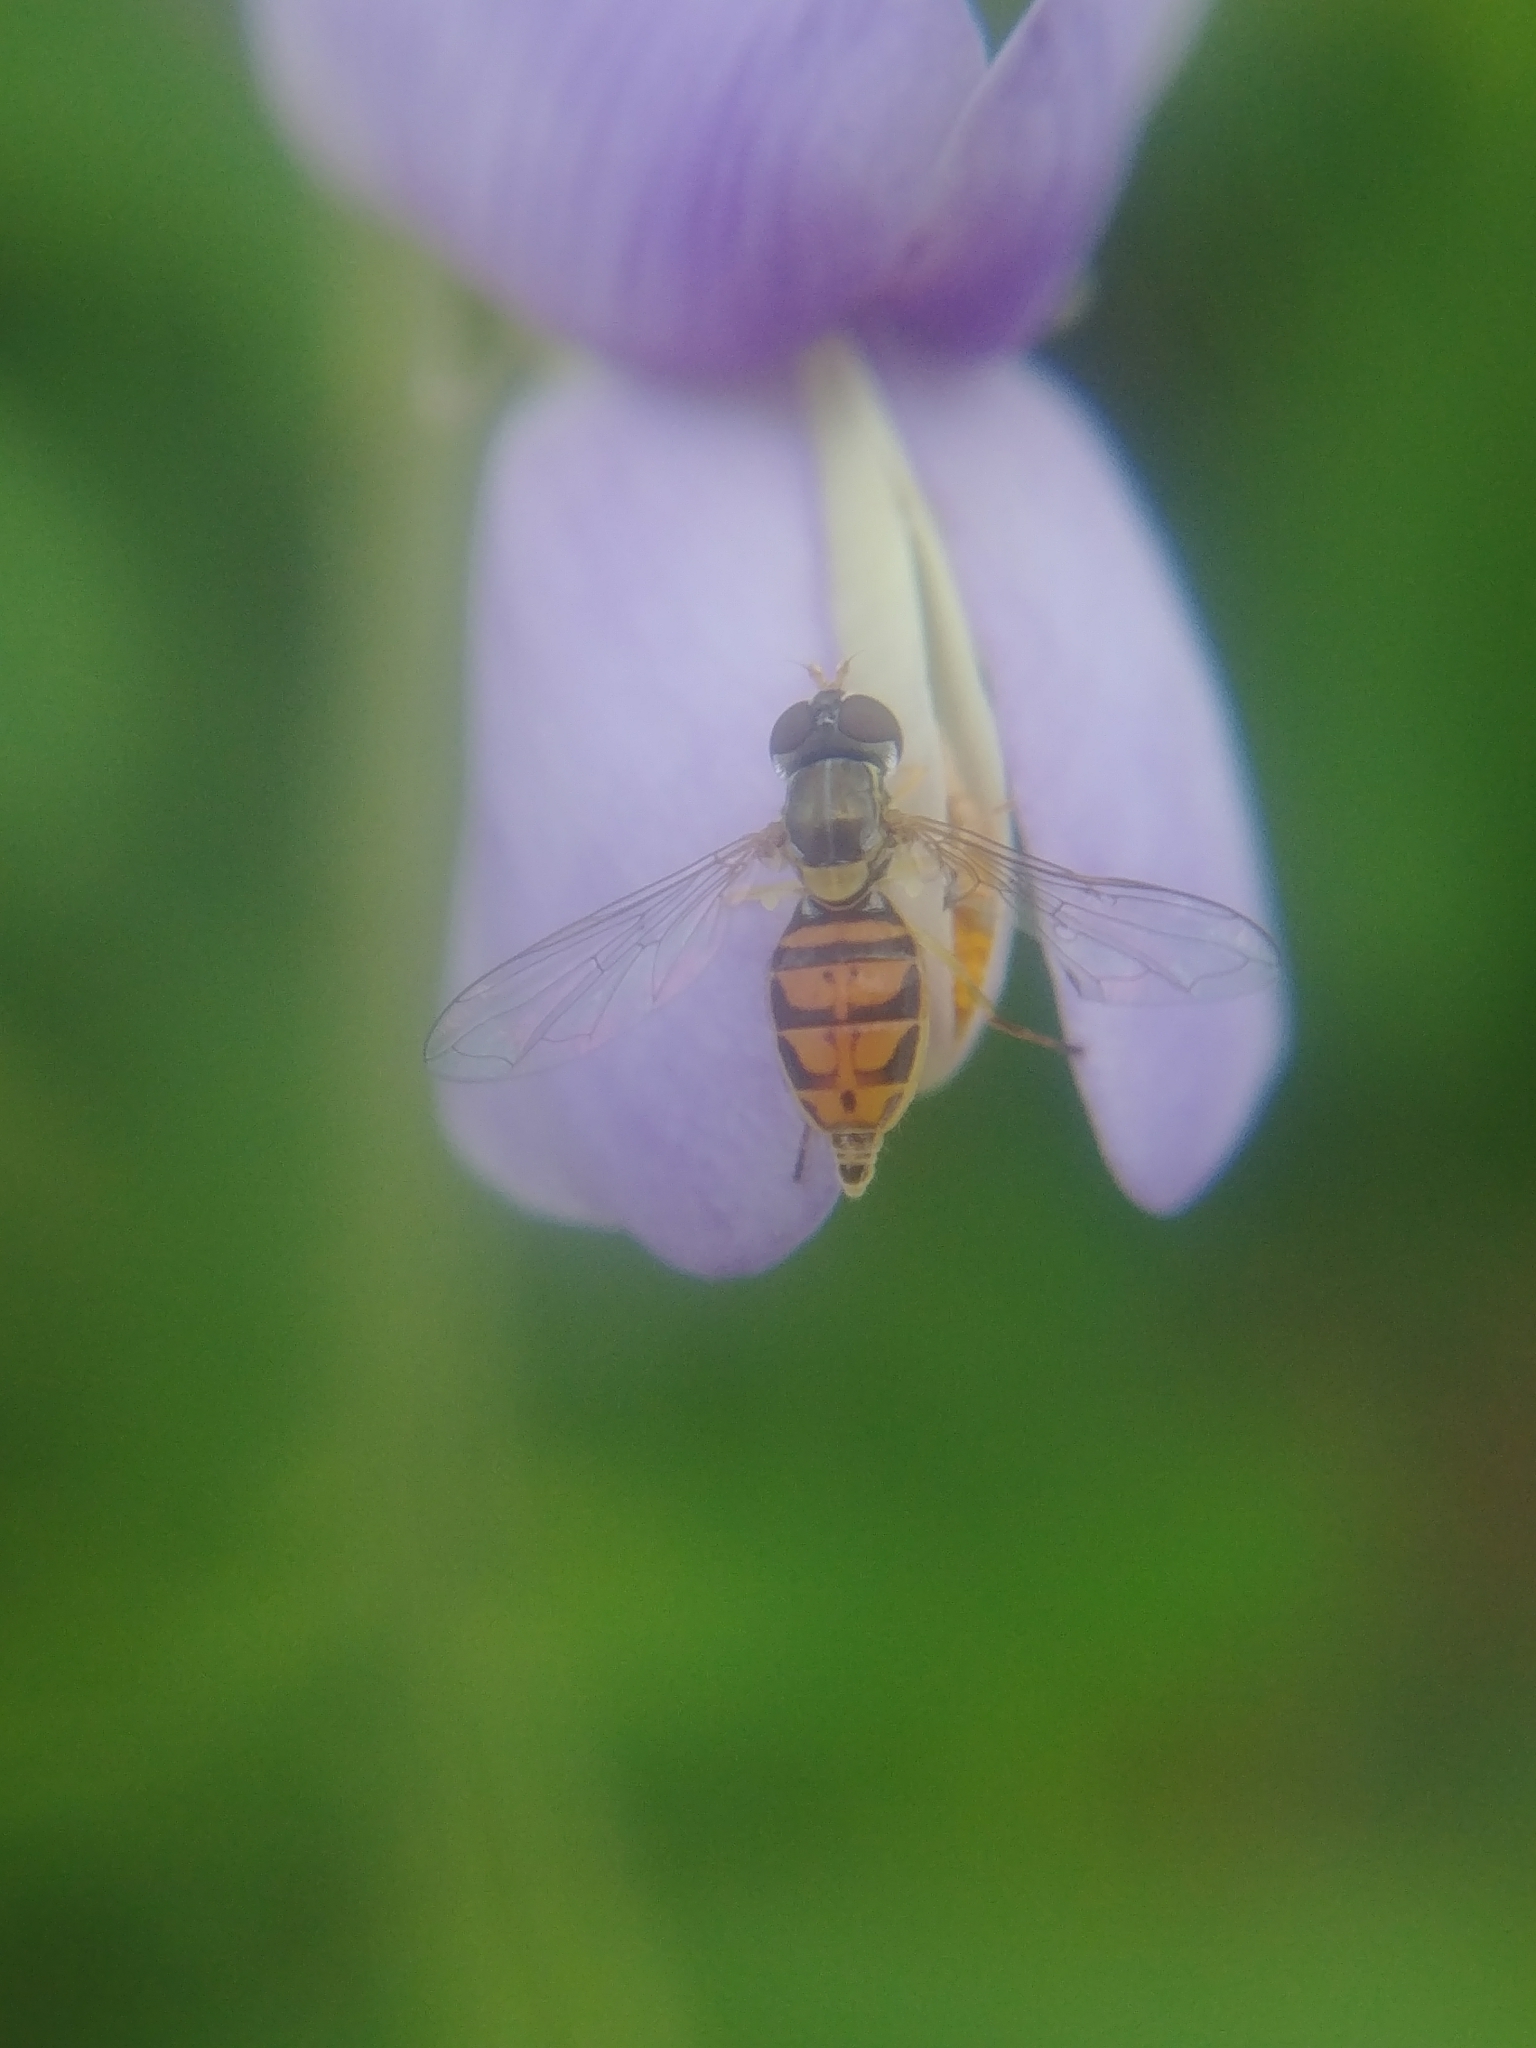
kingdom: Animalia
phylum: Arthropoda
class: Insecta
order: Diptera
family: Syrphidae
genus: Toxomerus
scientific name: Toxomerus marginatus
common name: Syrphid fly
